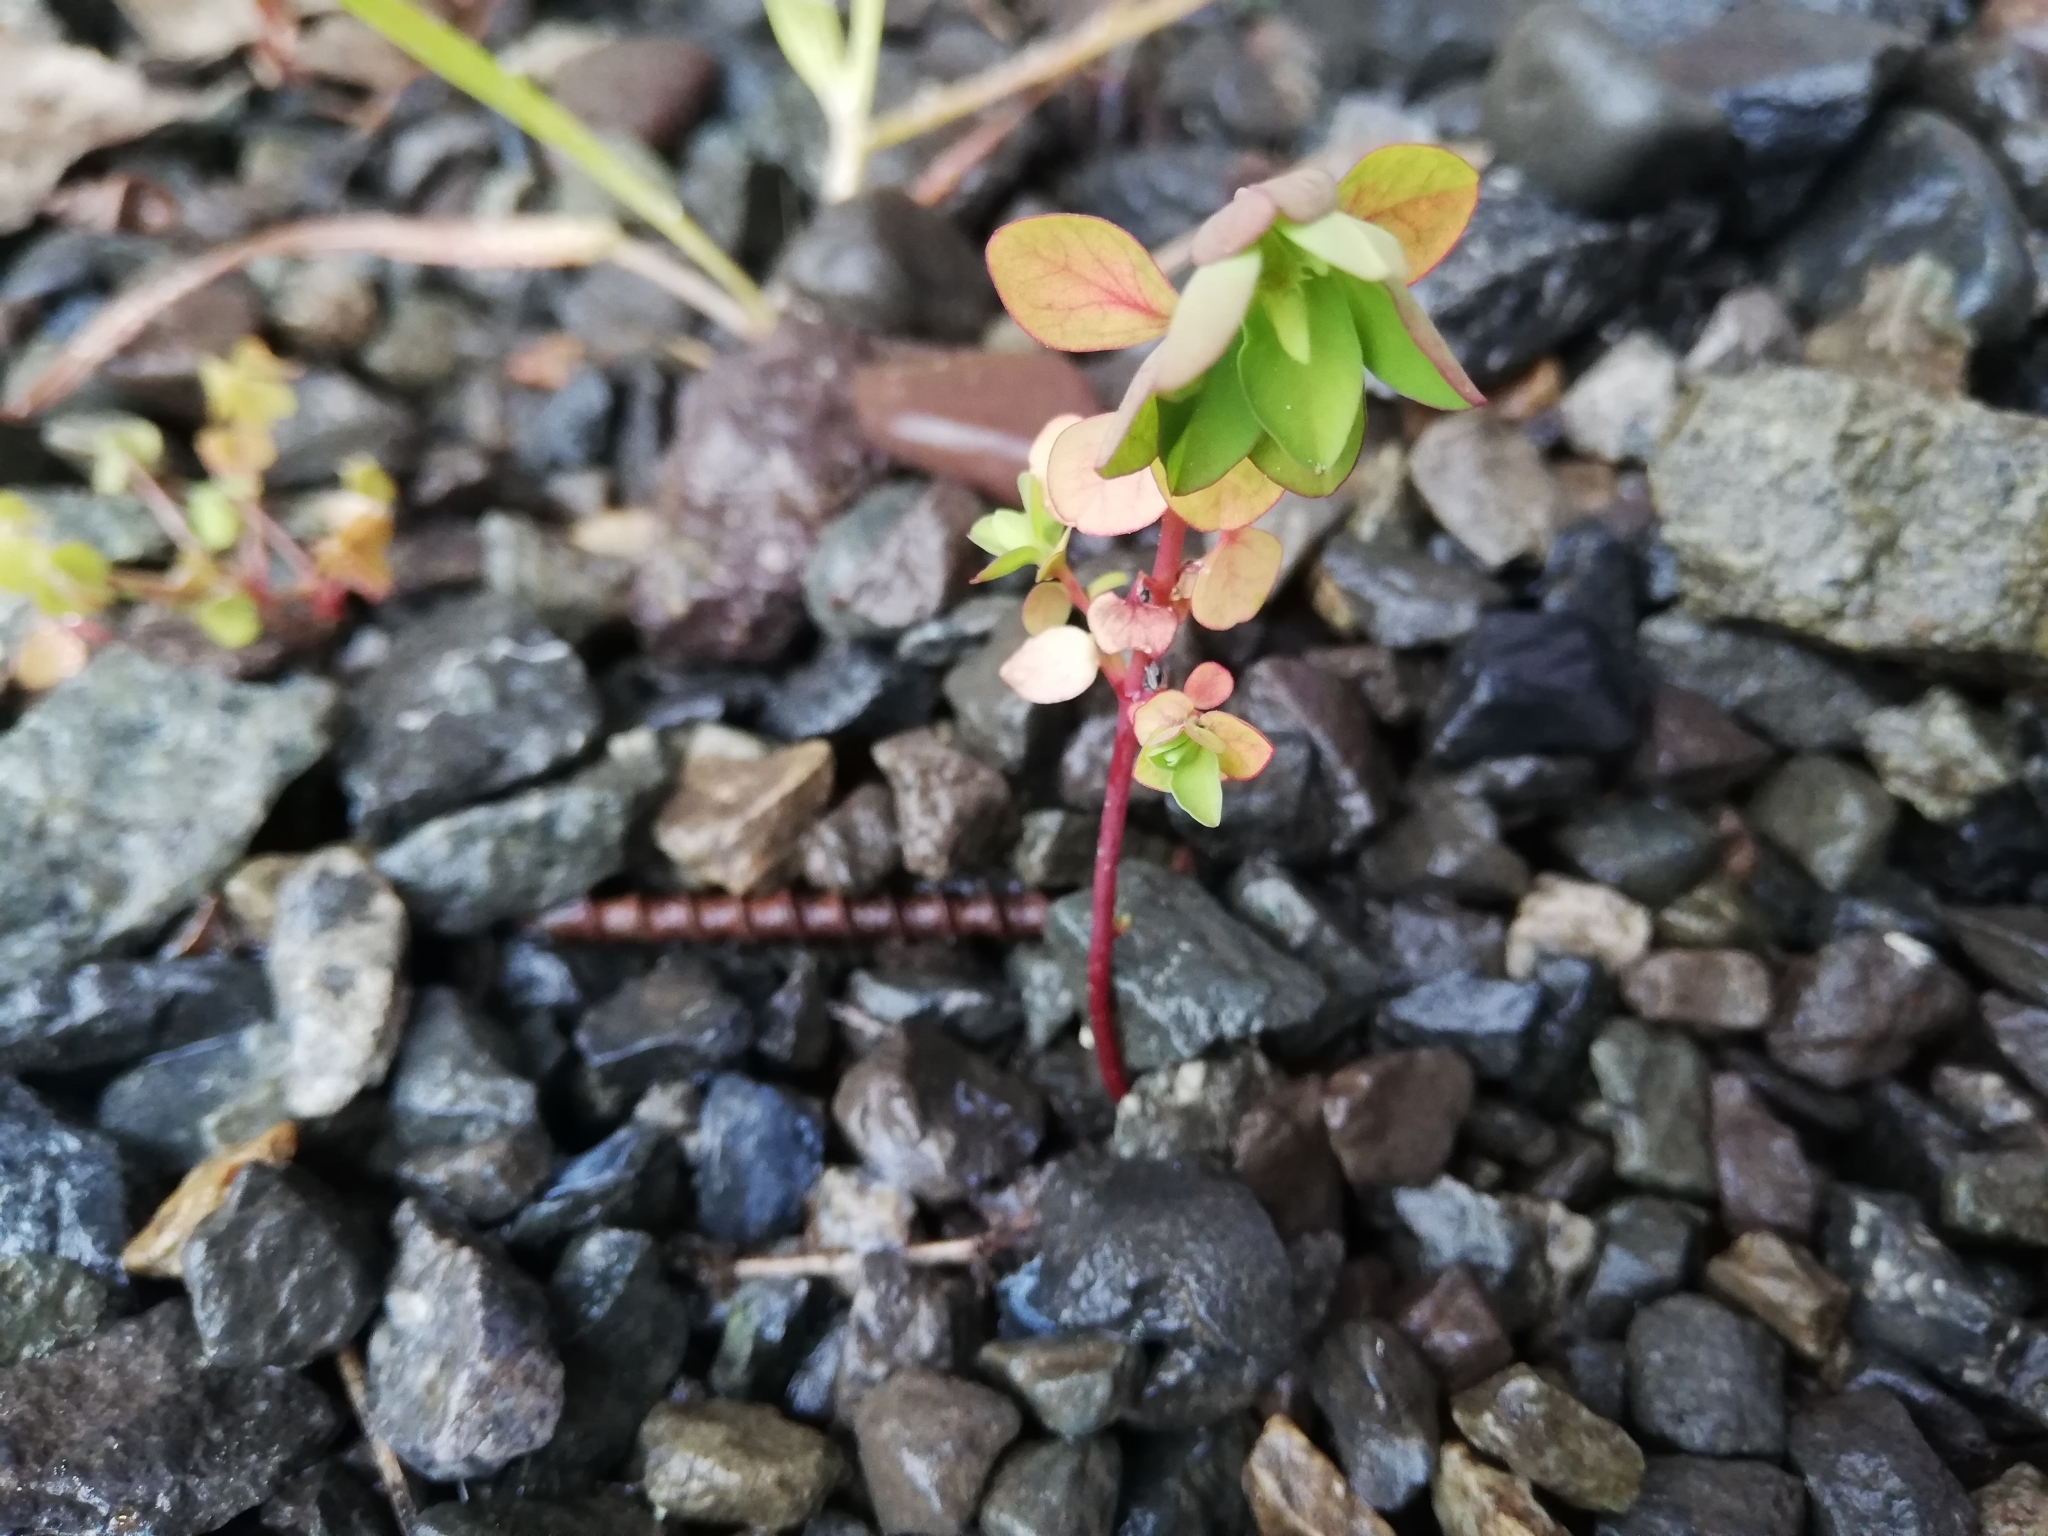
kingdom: Plantae
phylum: Tracheophyta
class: Magnoliopsida
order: Malpighiales
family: Euphorbiaceae
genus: Euphorbia
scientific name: Euphorbia peplus
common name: Petty spurge
